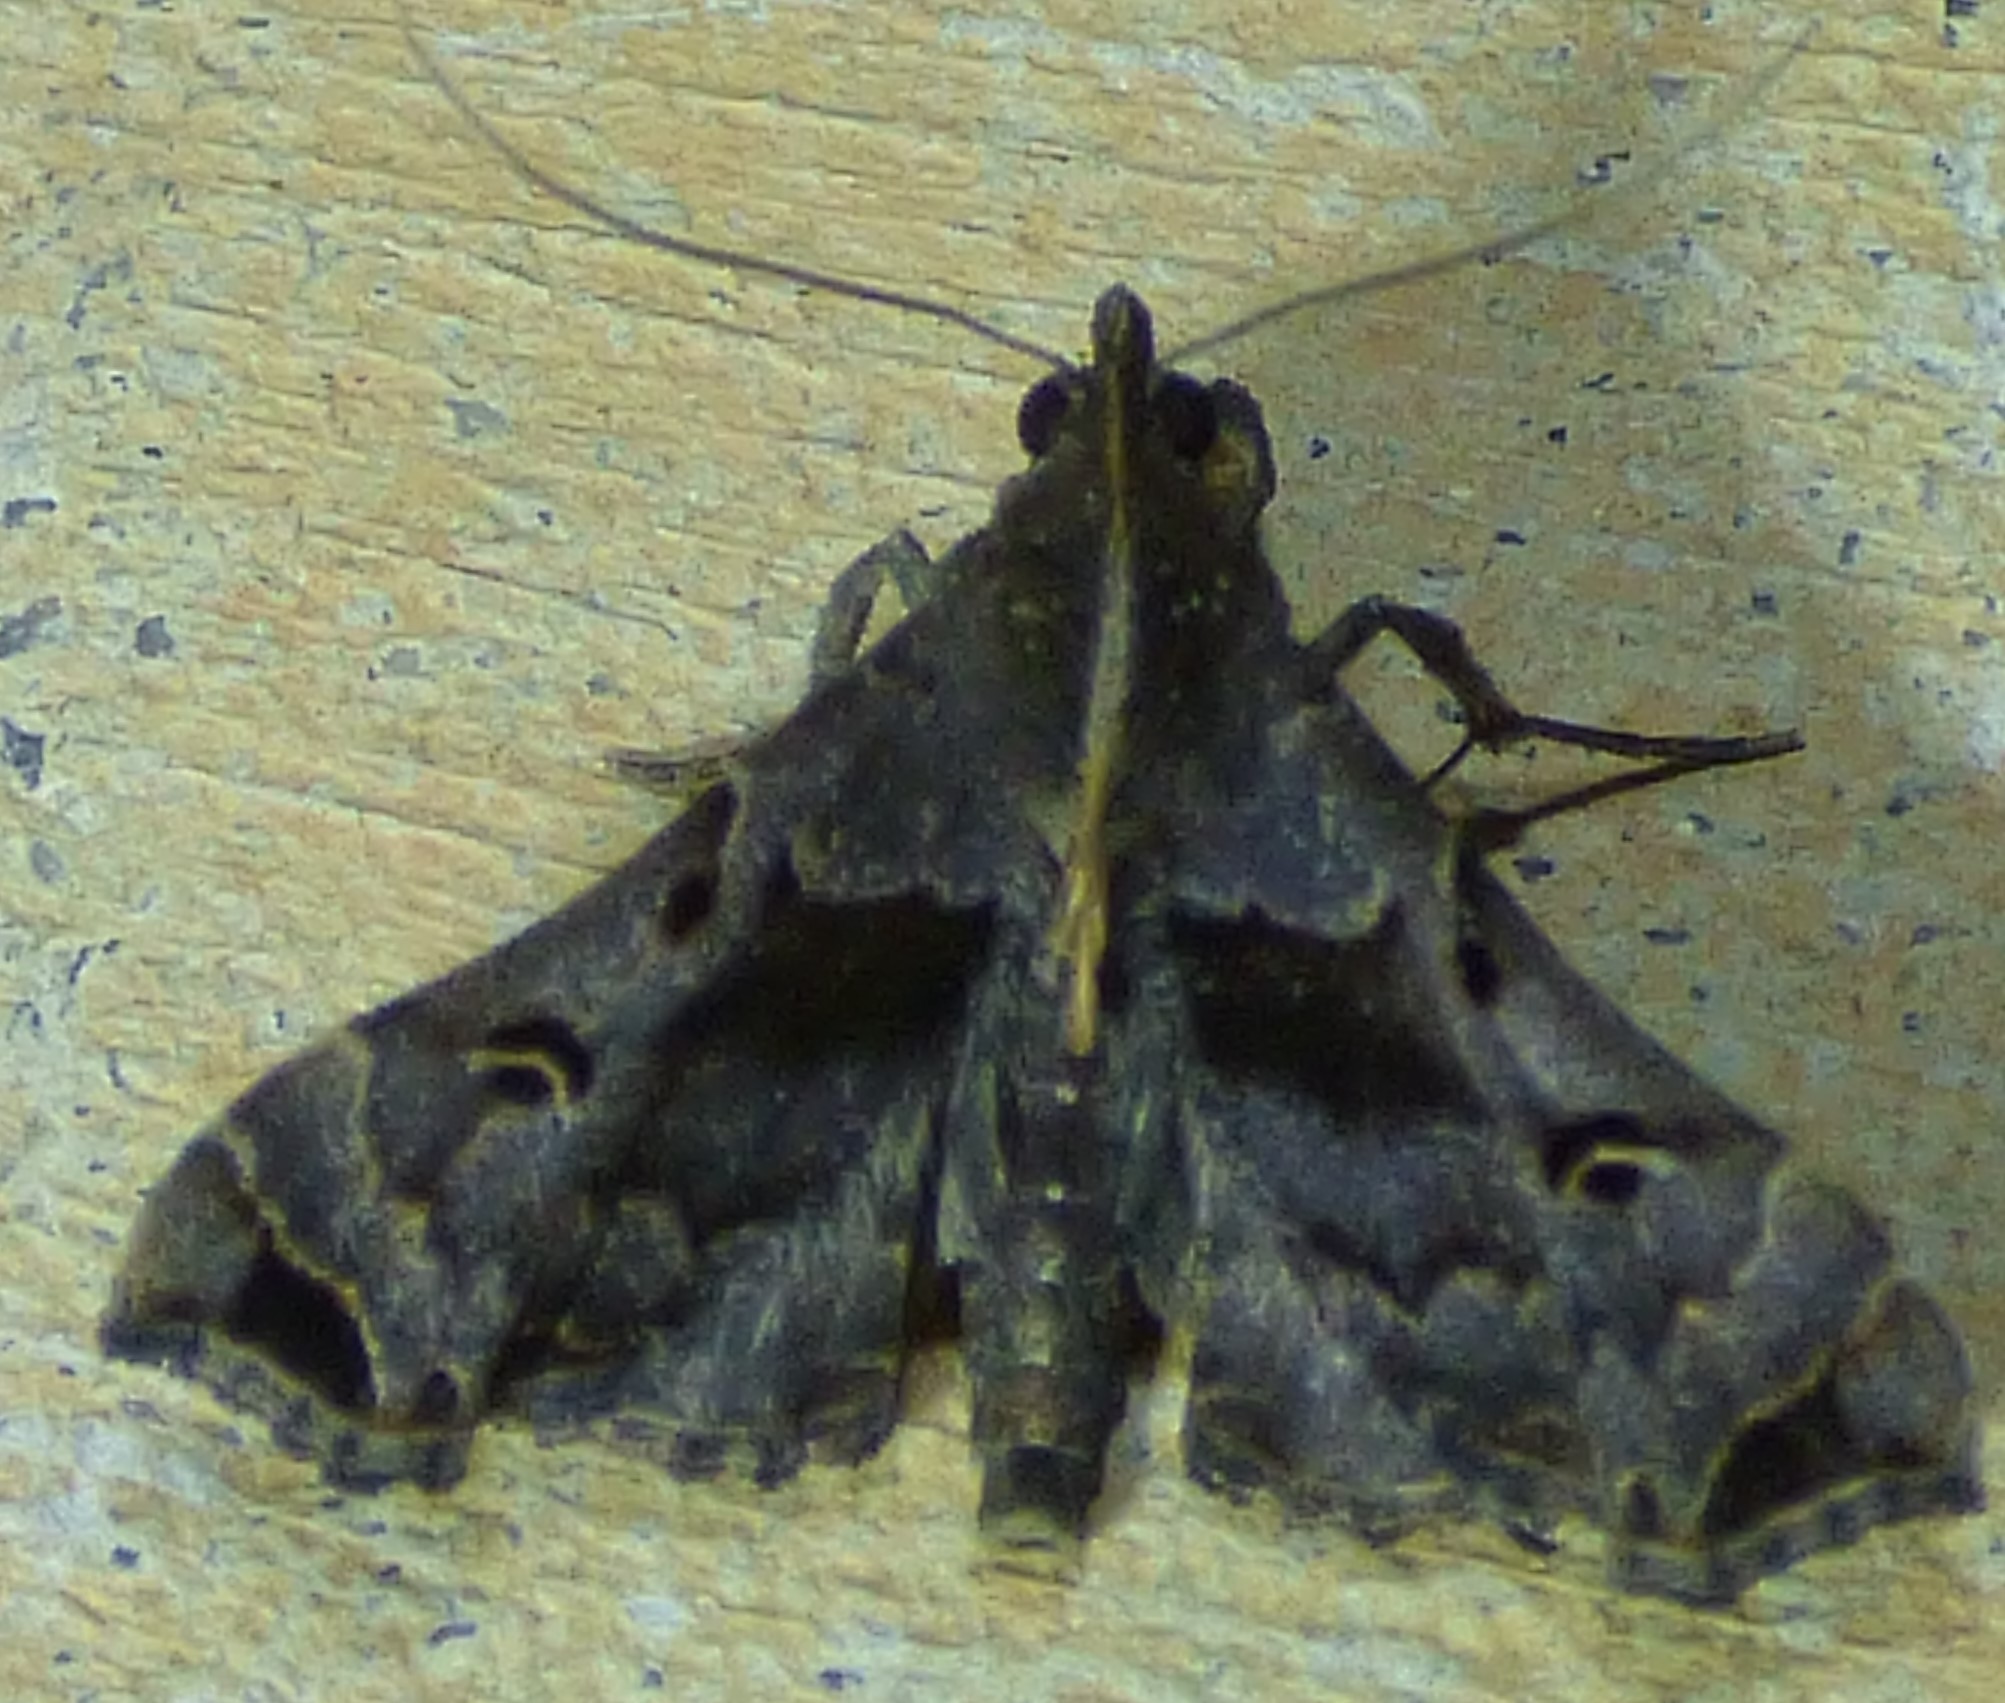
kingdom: Animalia
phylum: Arthropoda
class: Insecta
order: Lepidoptera
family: Erebidae
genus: Palthis
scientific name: Palthis asopialis
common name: Faint-spotted palthis moth
